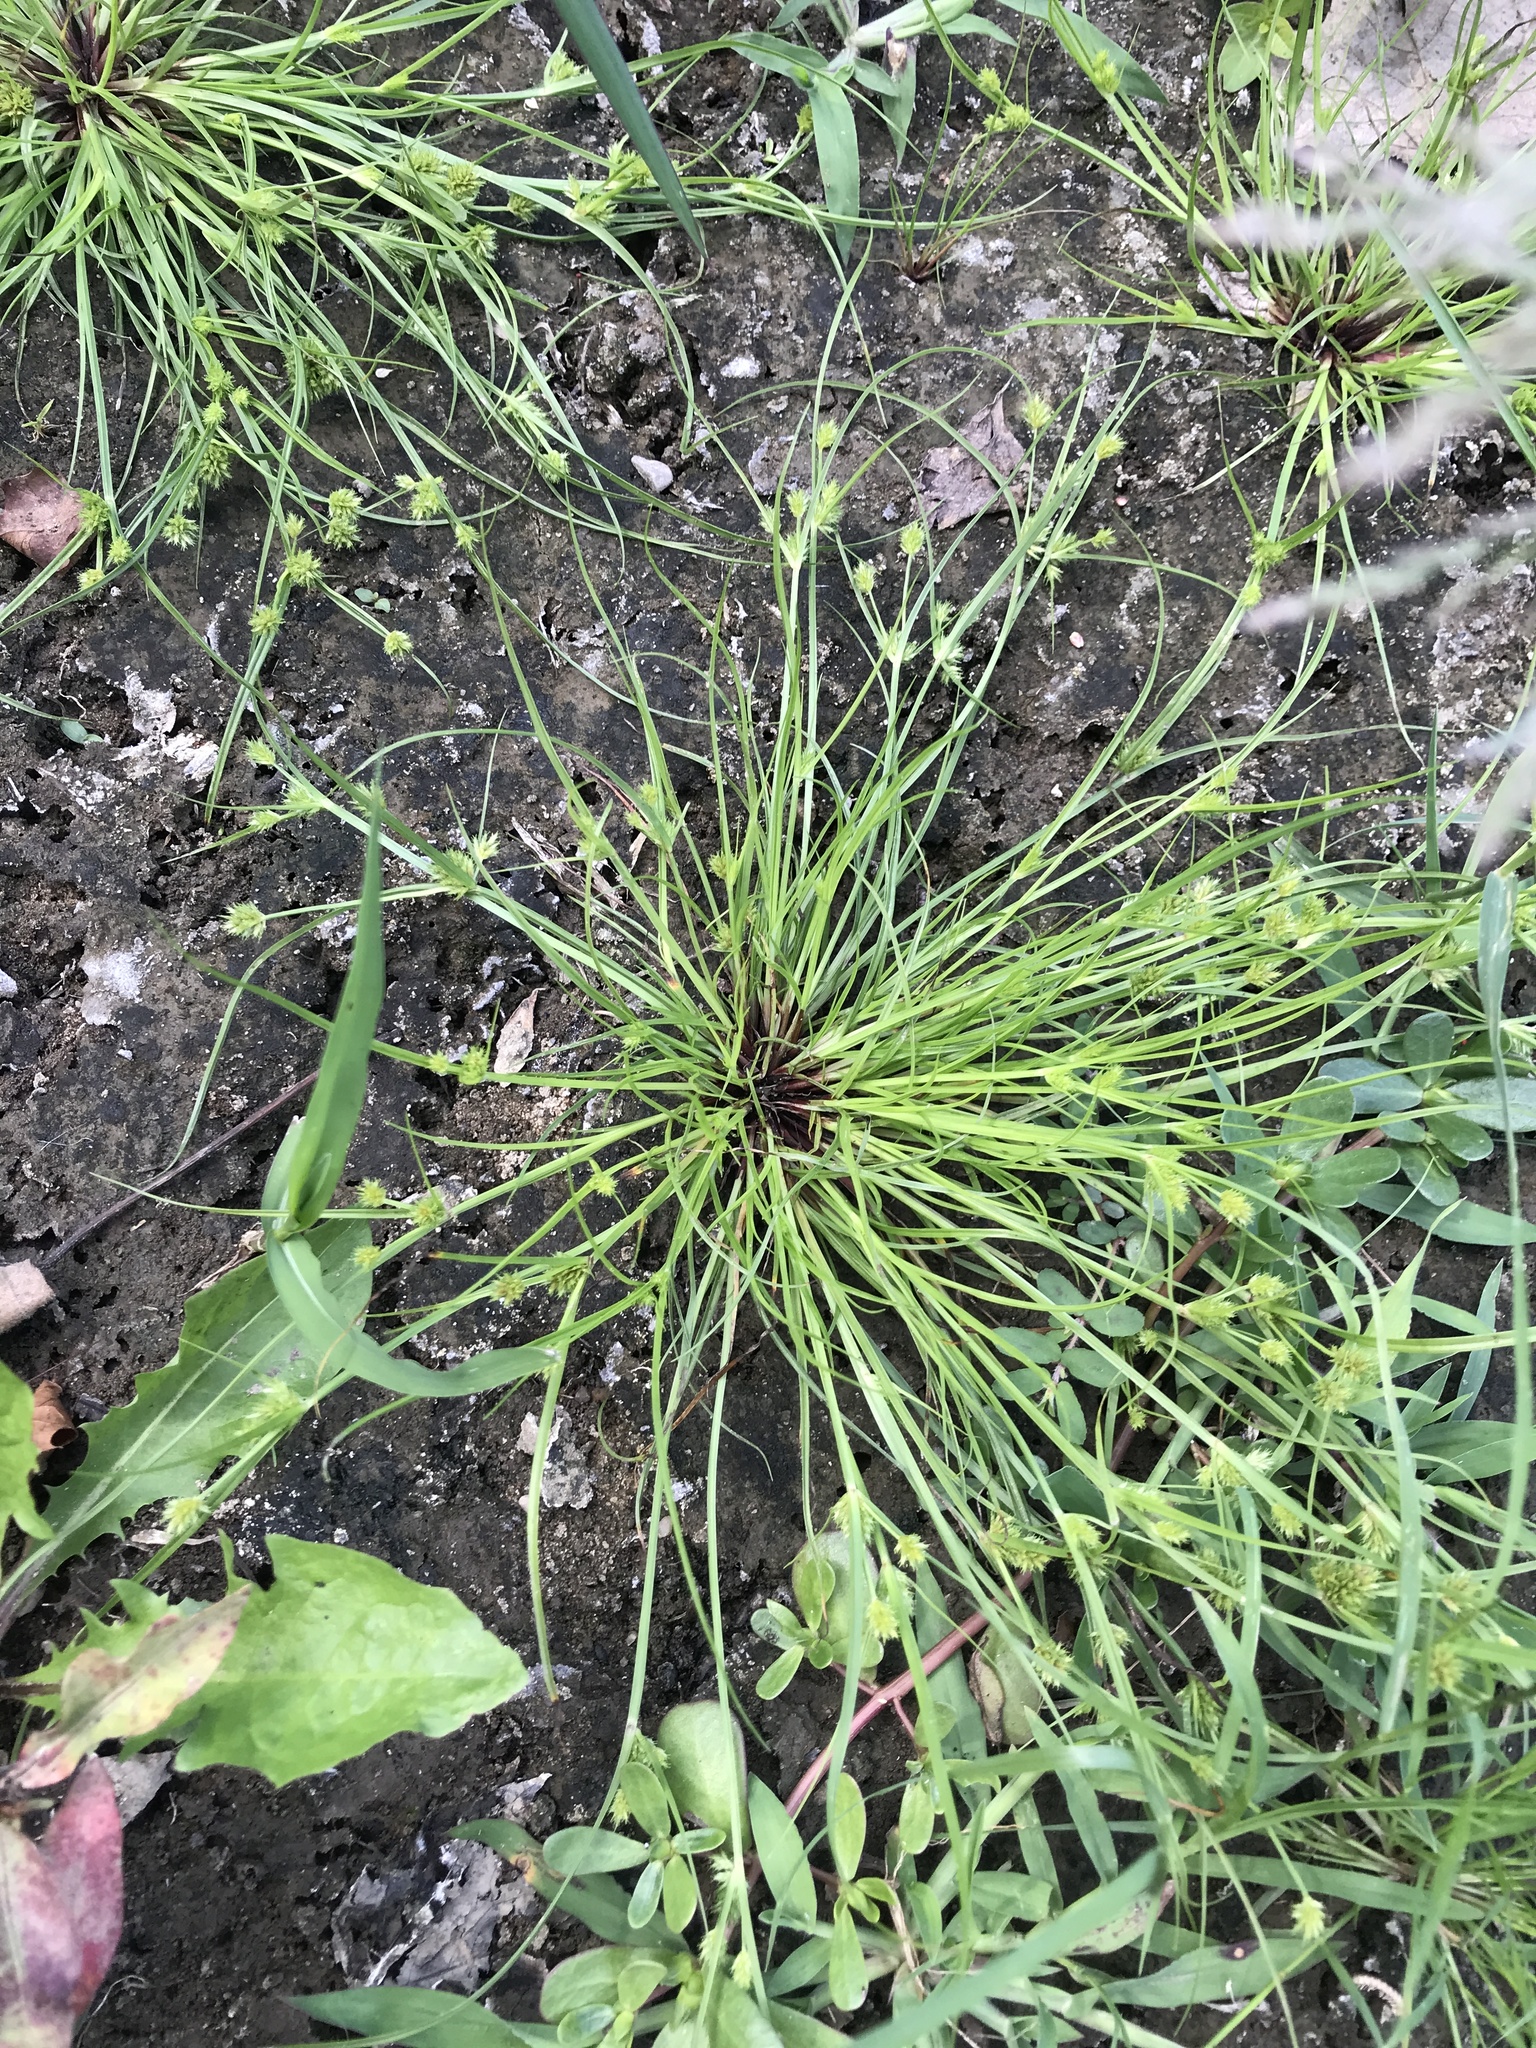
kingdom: Plantae
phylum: Tracheophyta
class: Liliopsida
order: Poales
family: Cyperaceae
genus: Cyperus
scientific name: Cyperus squarrosus
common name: Awned cyperus
